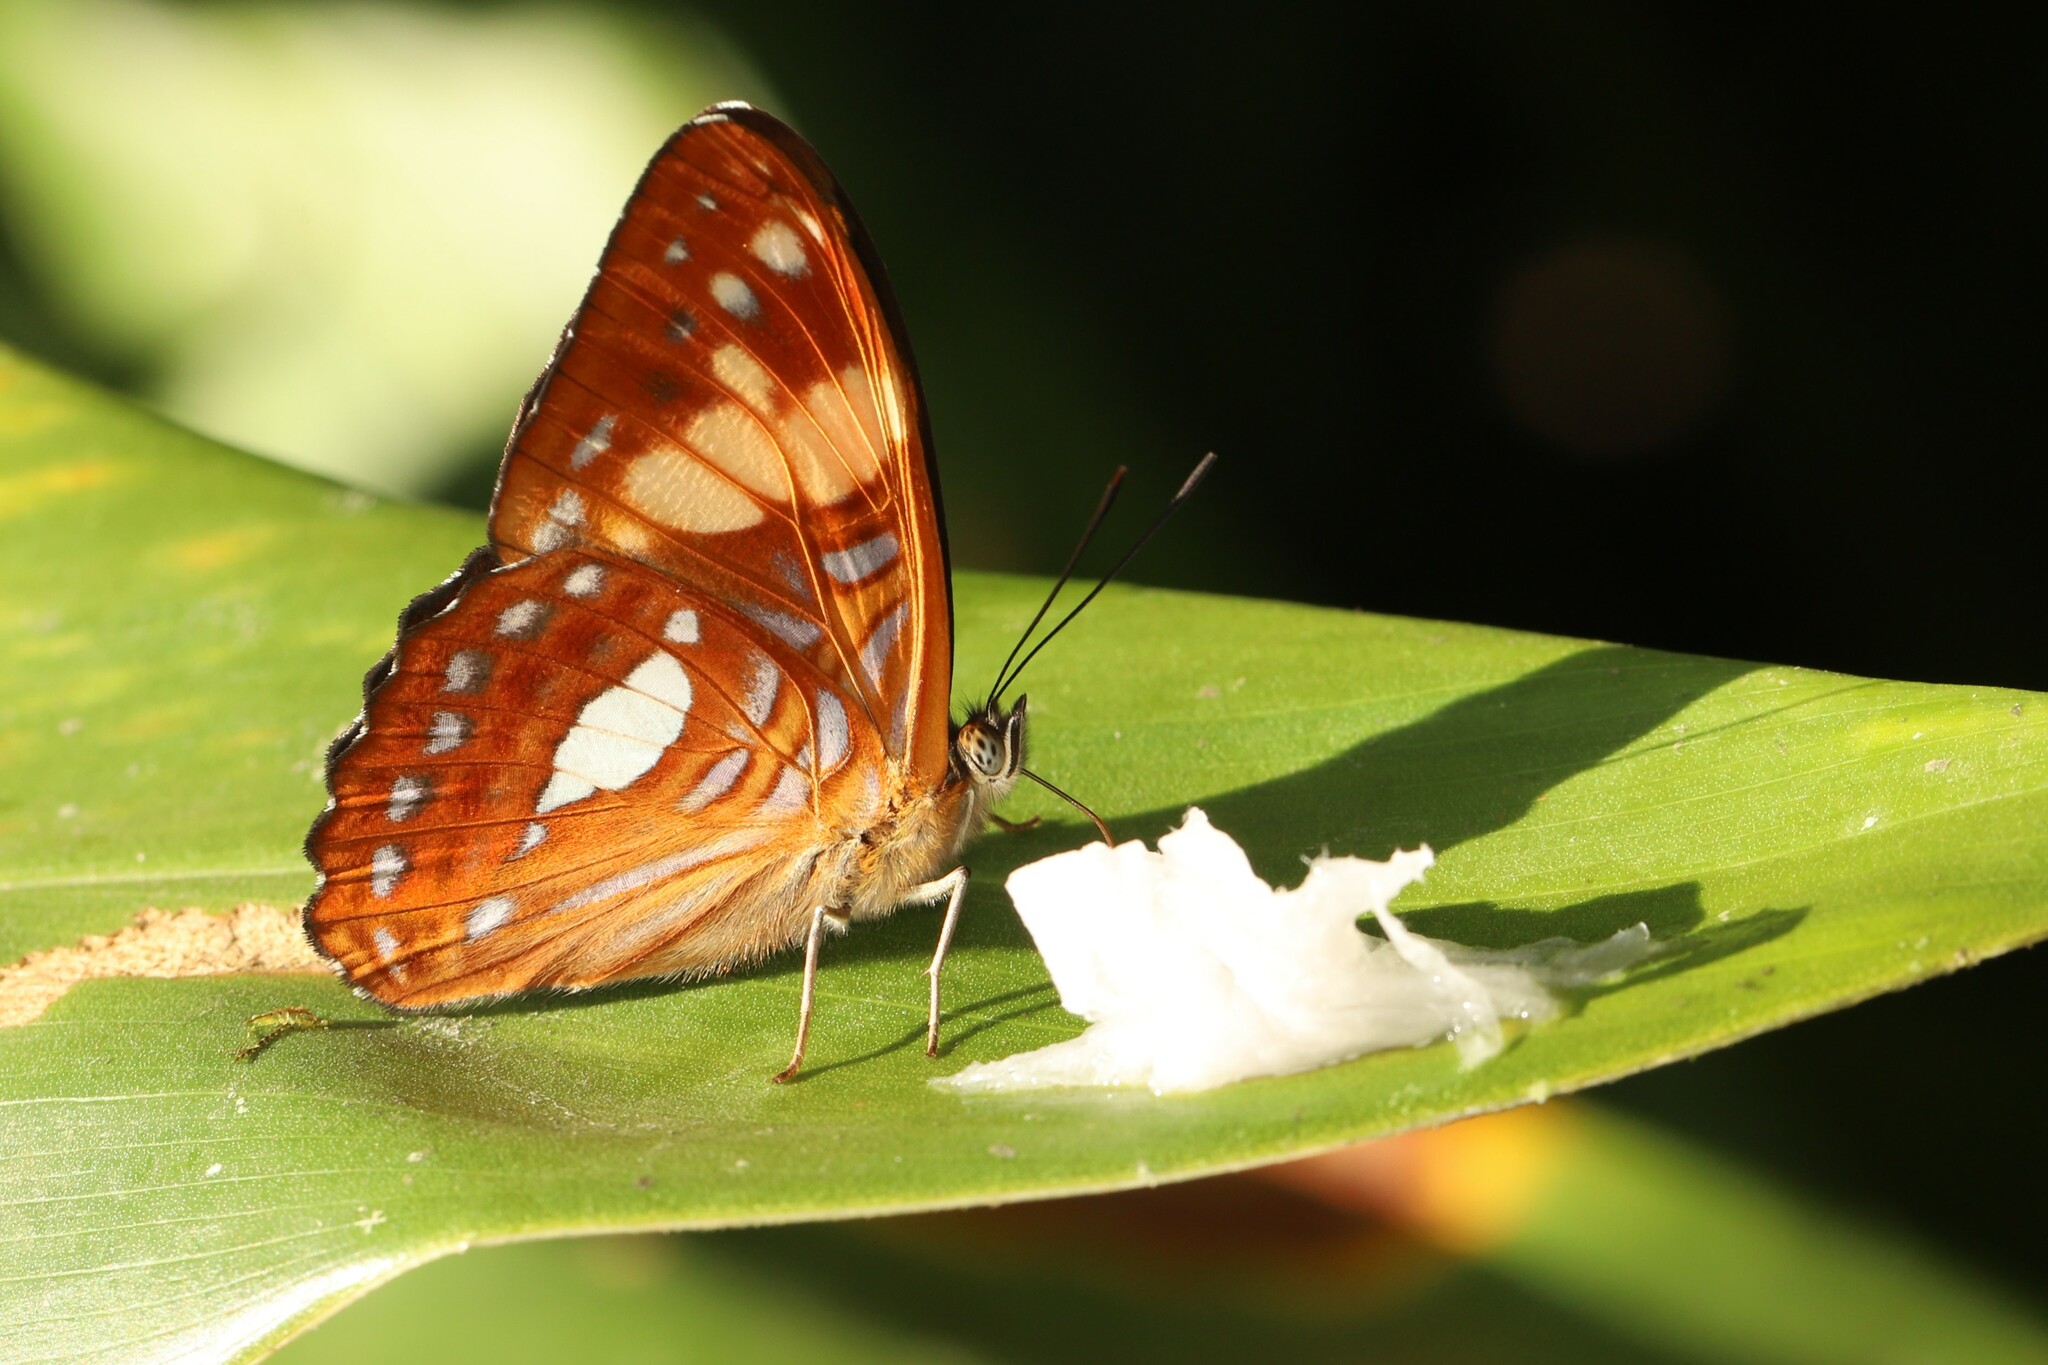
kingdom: Animalia
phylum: Arthropoda
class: Insecta
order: Lepidoptera
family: Nymphalidae
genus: Limenitis
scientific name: Limenitis justina
